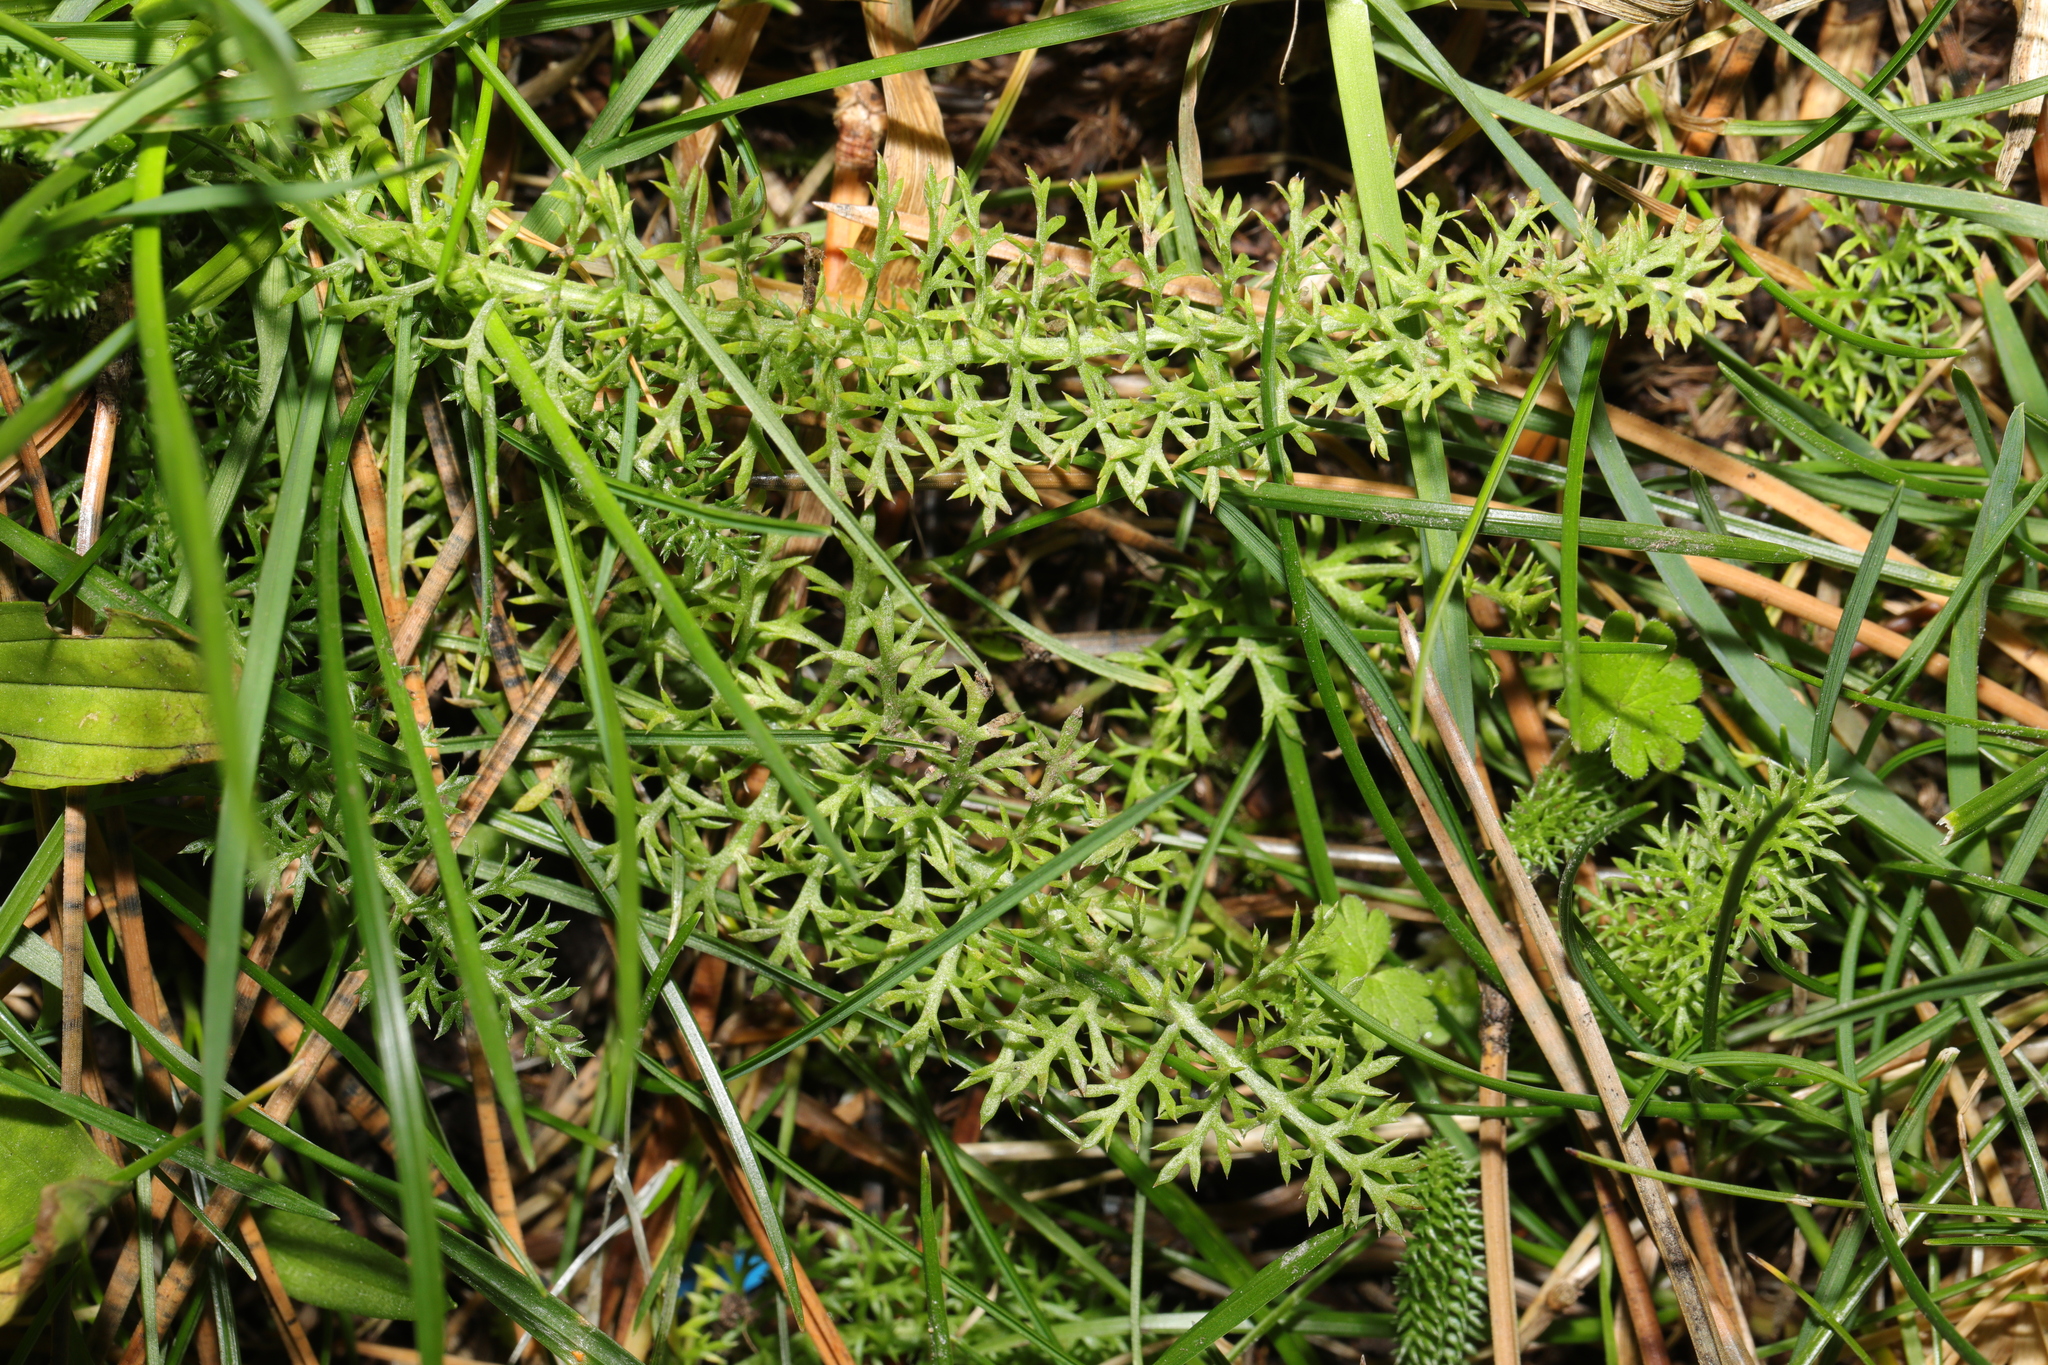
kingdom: Plantae
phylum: Tracheophyta
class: Magnoliopsida
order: Asterales
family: Asteraceae
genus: Achillea
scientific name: Achillea millefolium
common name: Yarrow
